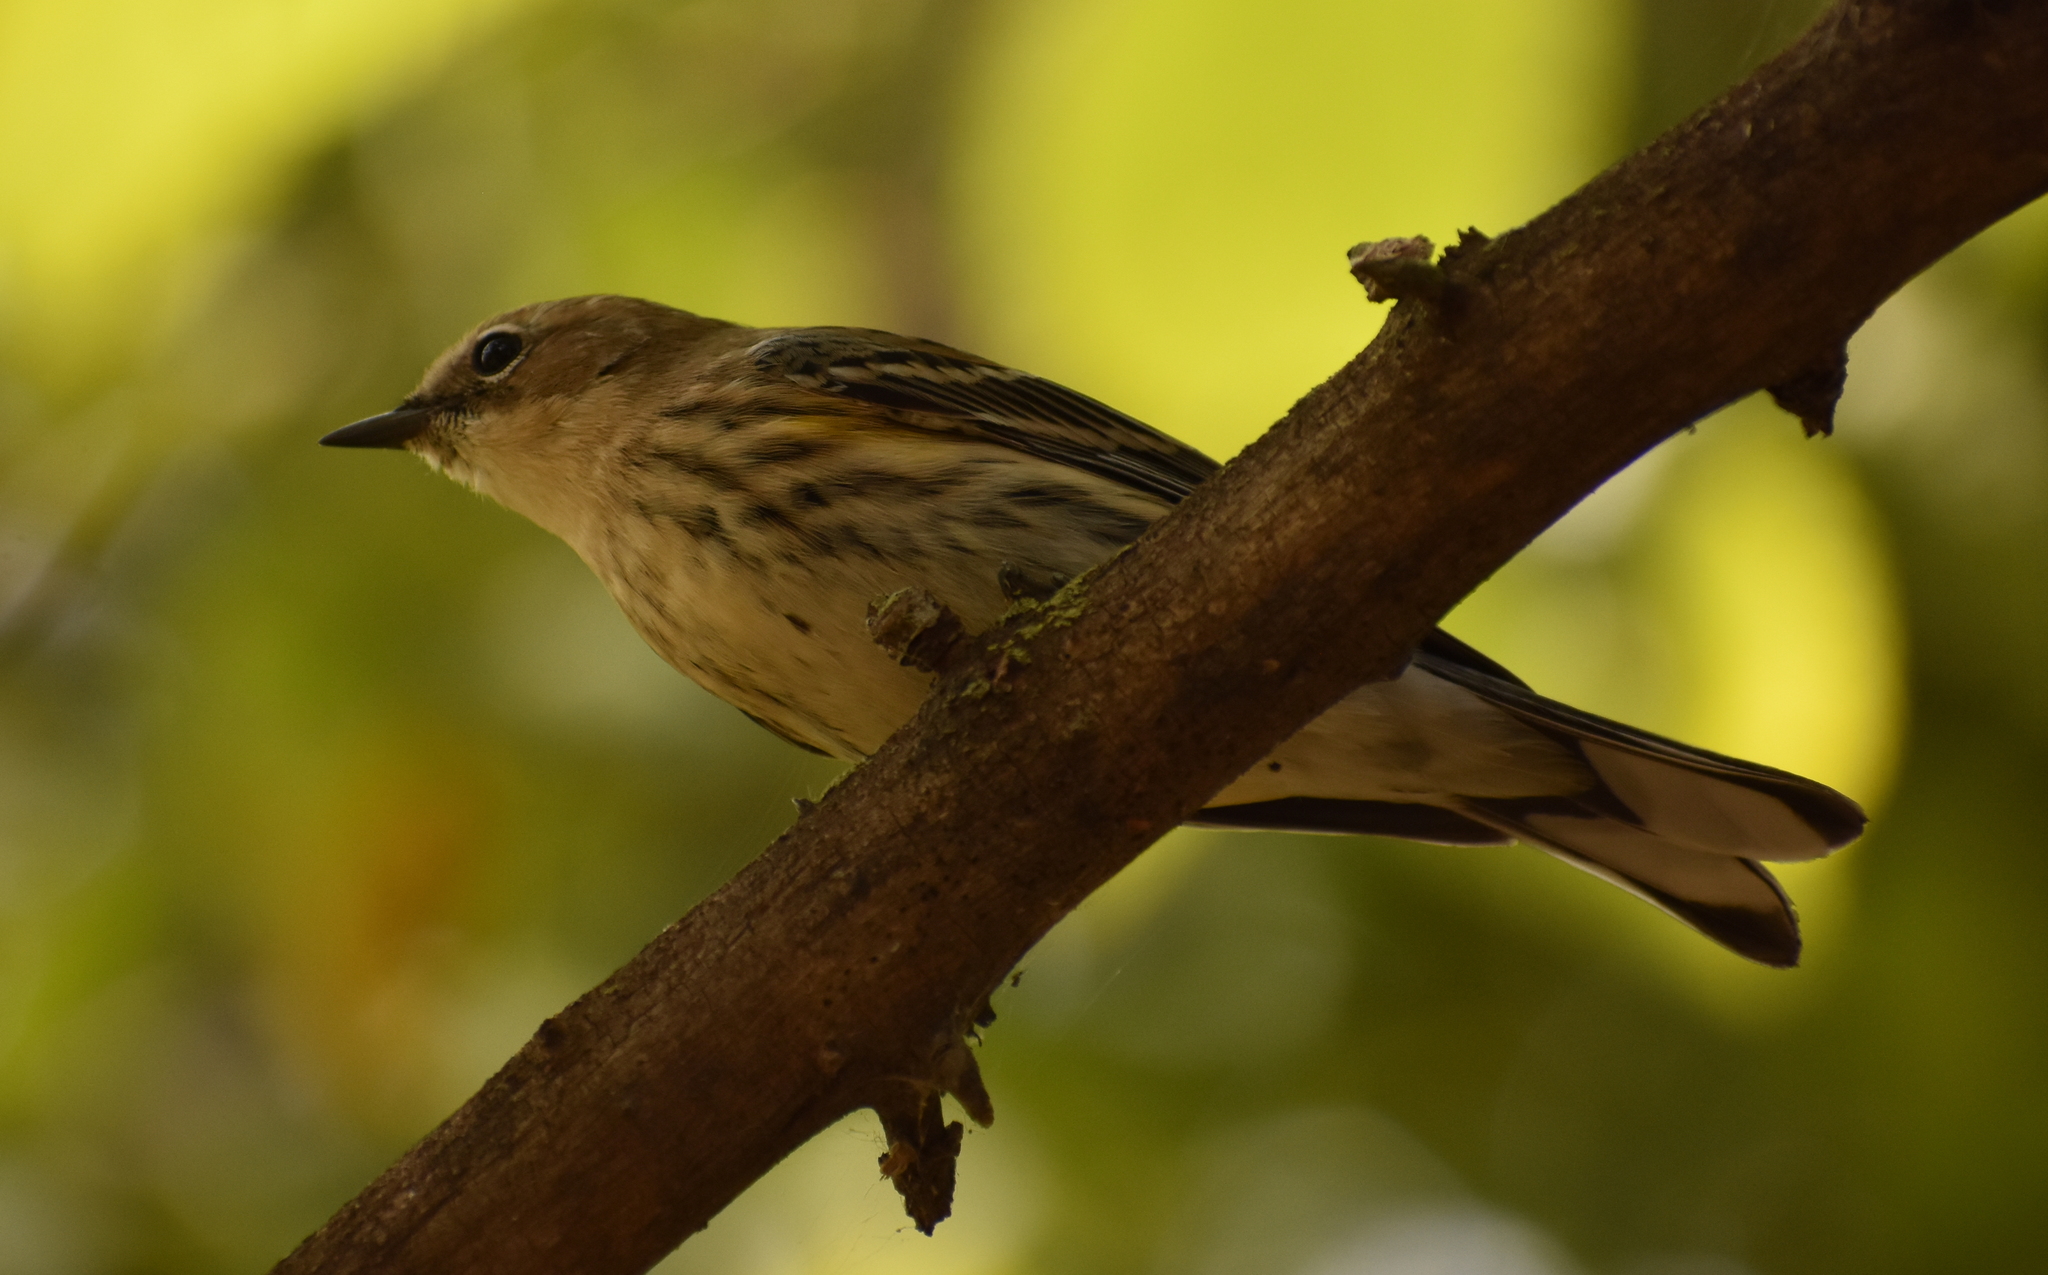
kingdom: Animalia
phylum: Chordata
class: Aves
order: Passeriformes
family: Parulidae
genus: Setophaga
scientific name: Setophaga coronata
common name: Myrtle warbler
